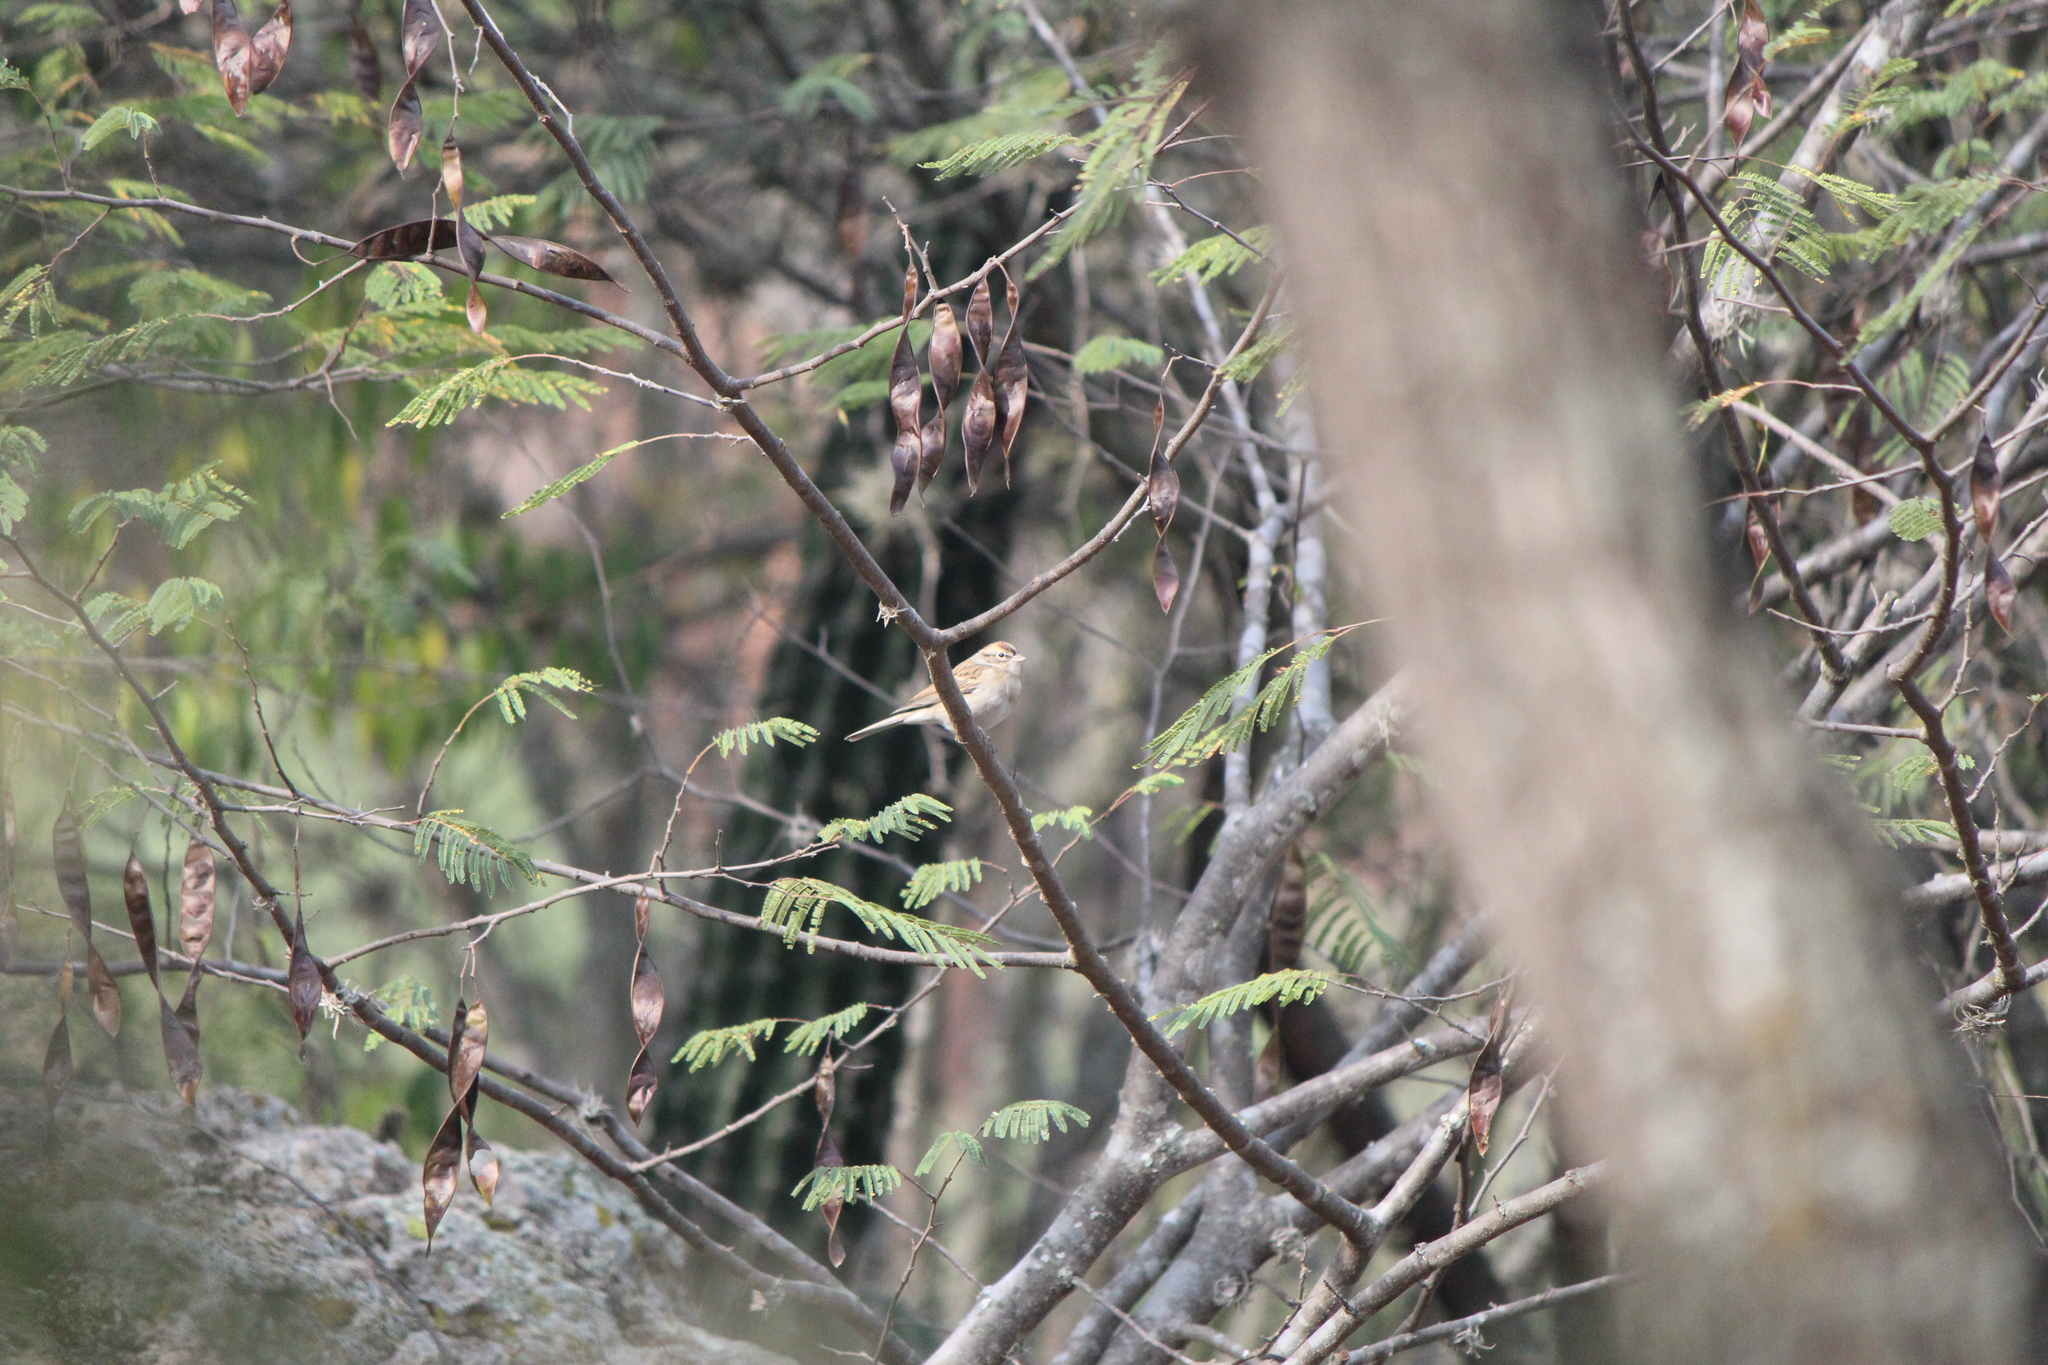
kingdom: Animalia
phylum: Chordata
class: Aves
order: Passeriformes
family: Passerellidae
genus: Spizella
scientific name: Spizella passerina
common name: Chipping sparrow
